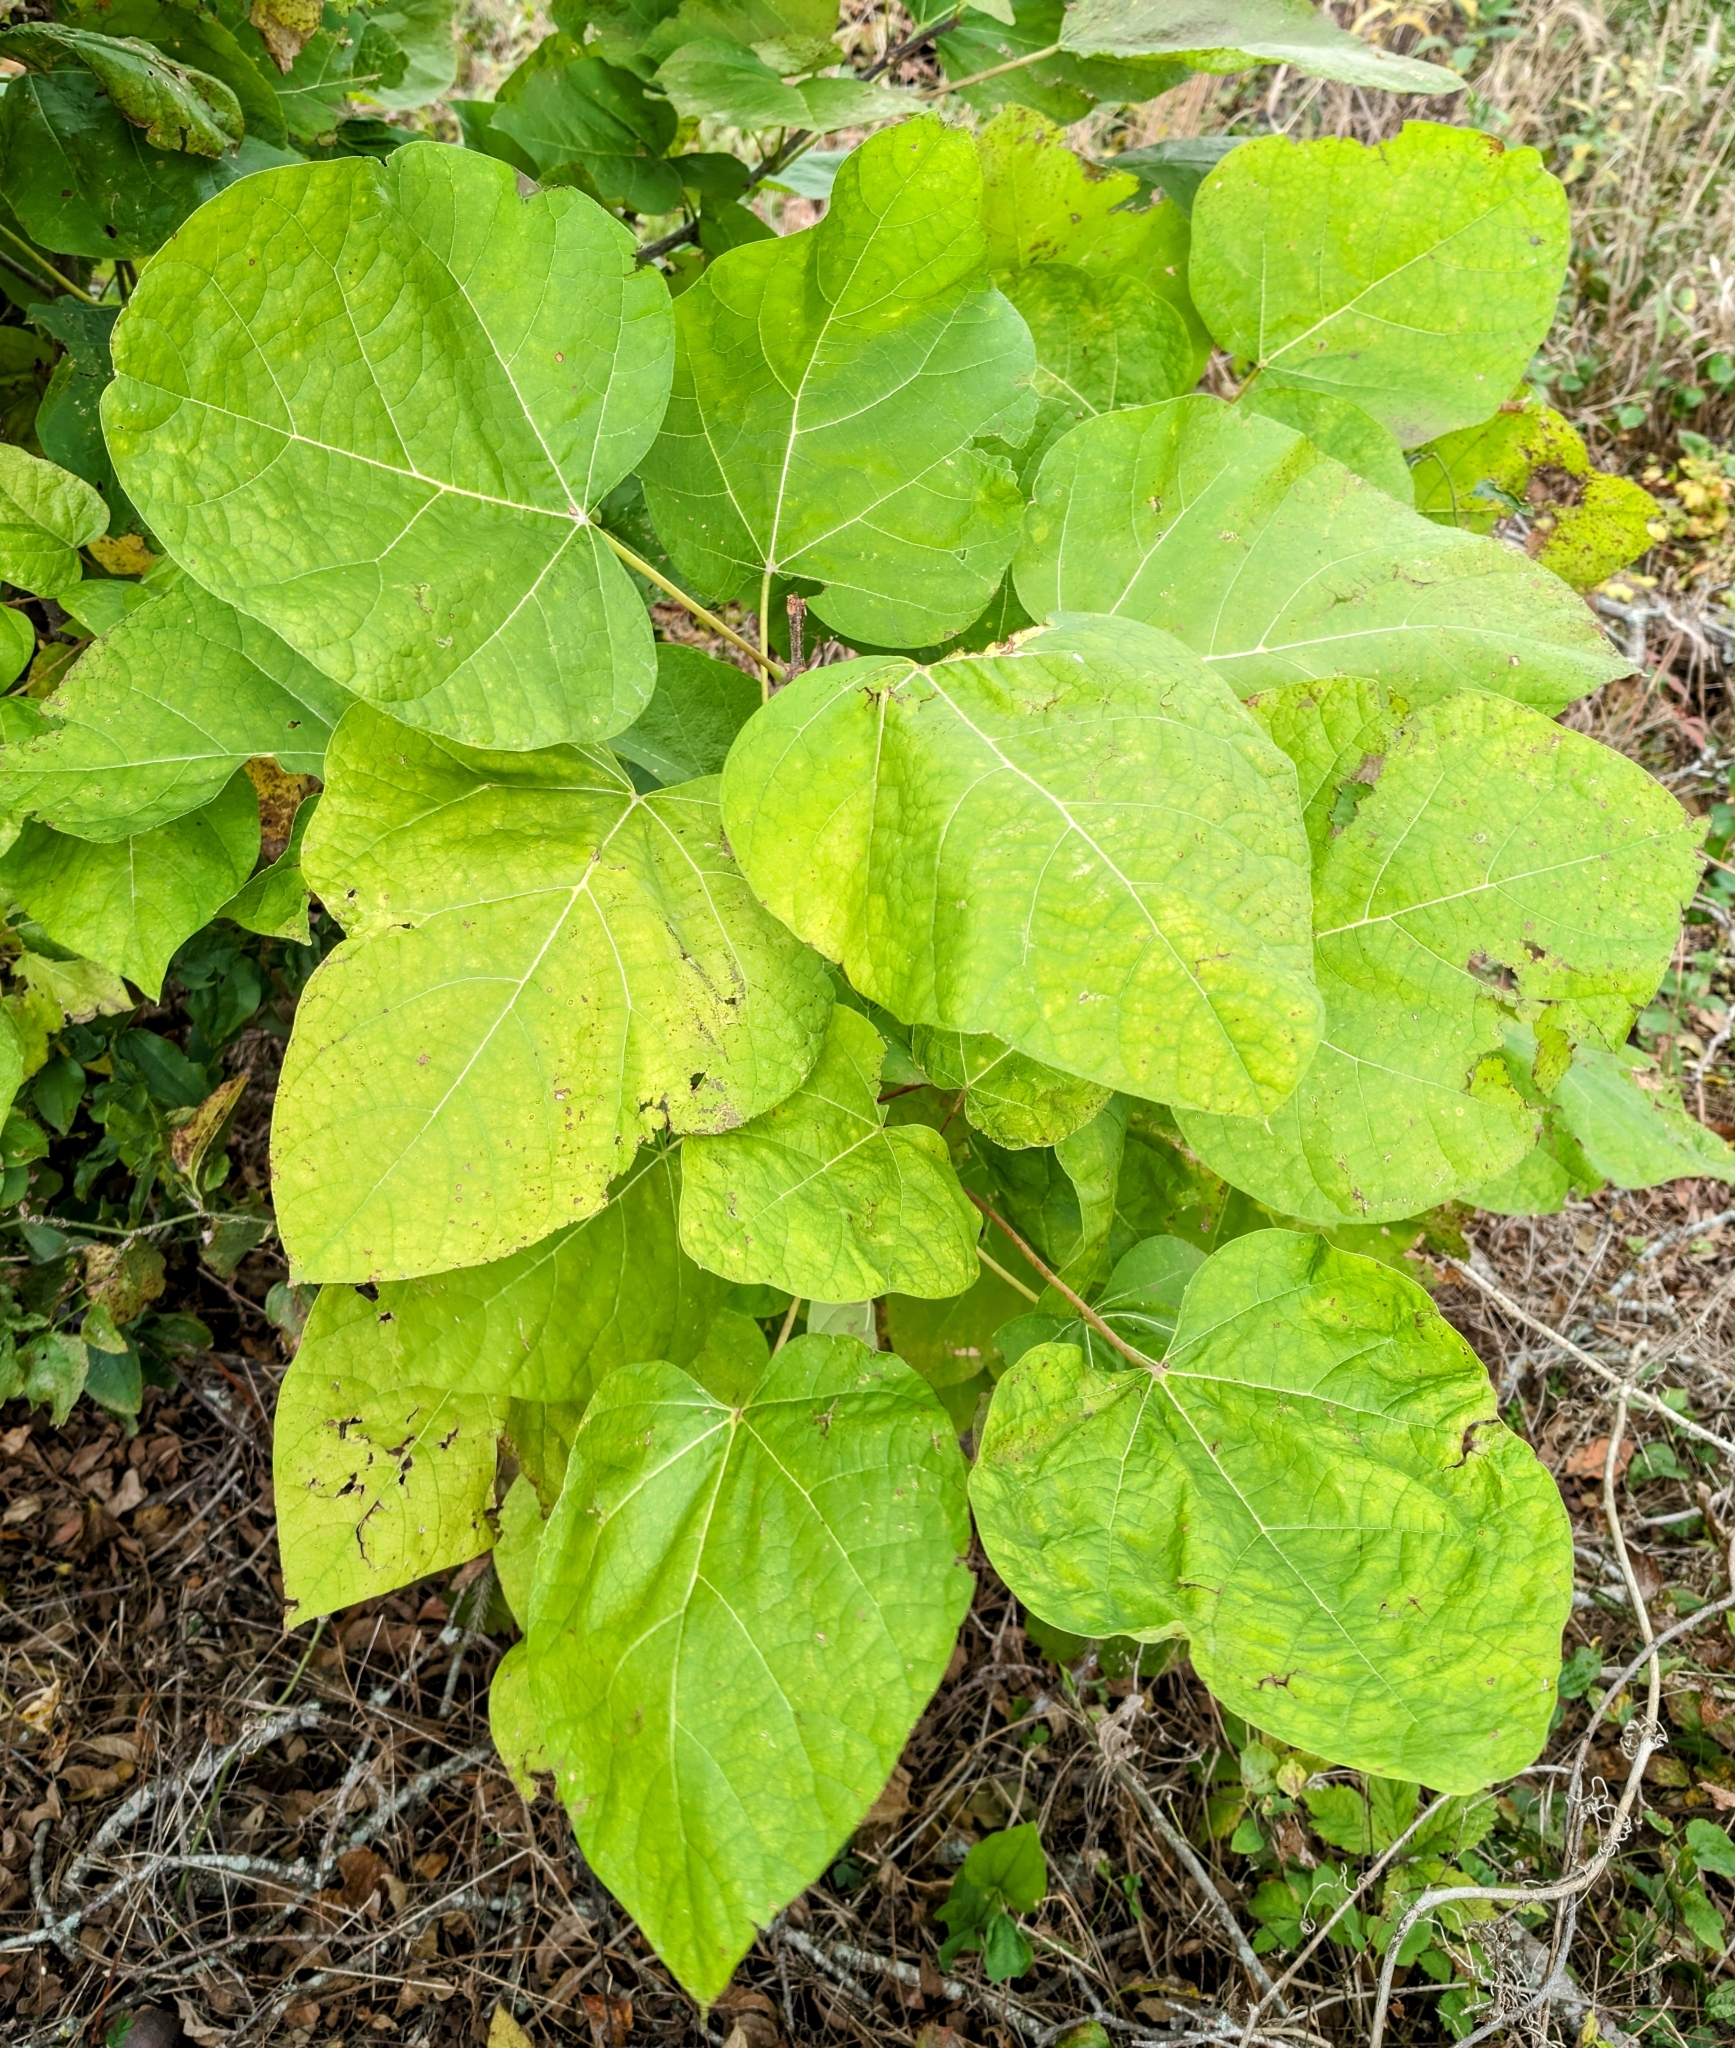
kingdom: Plantae
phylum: Tracheophyta
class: Magnoliopsida
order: Lamiales
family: Bignoniaceae
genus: Catalpa
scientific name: Catalpa speciosa
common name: Northern catalpa
